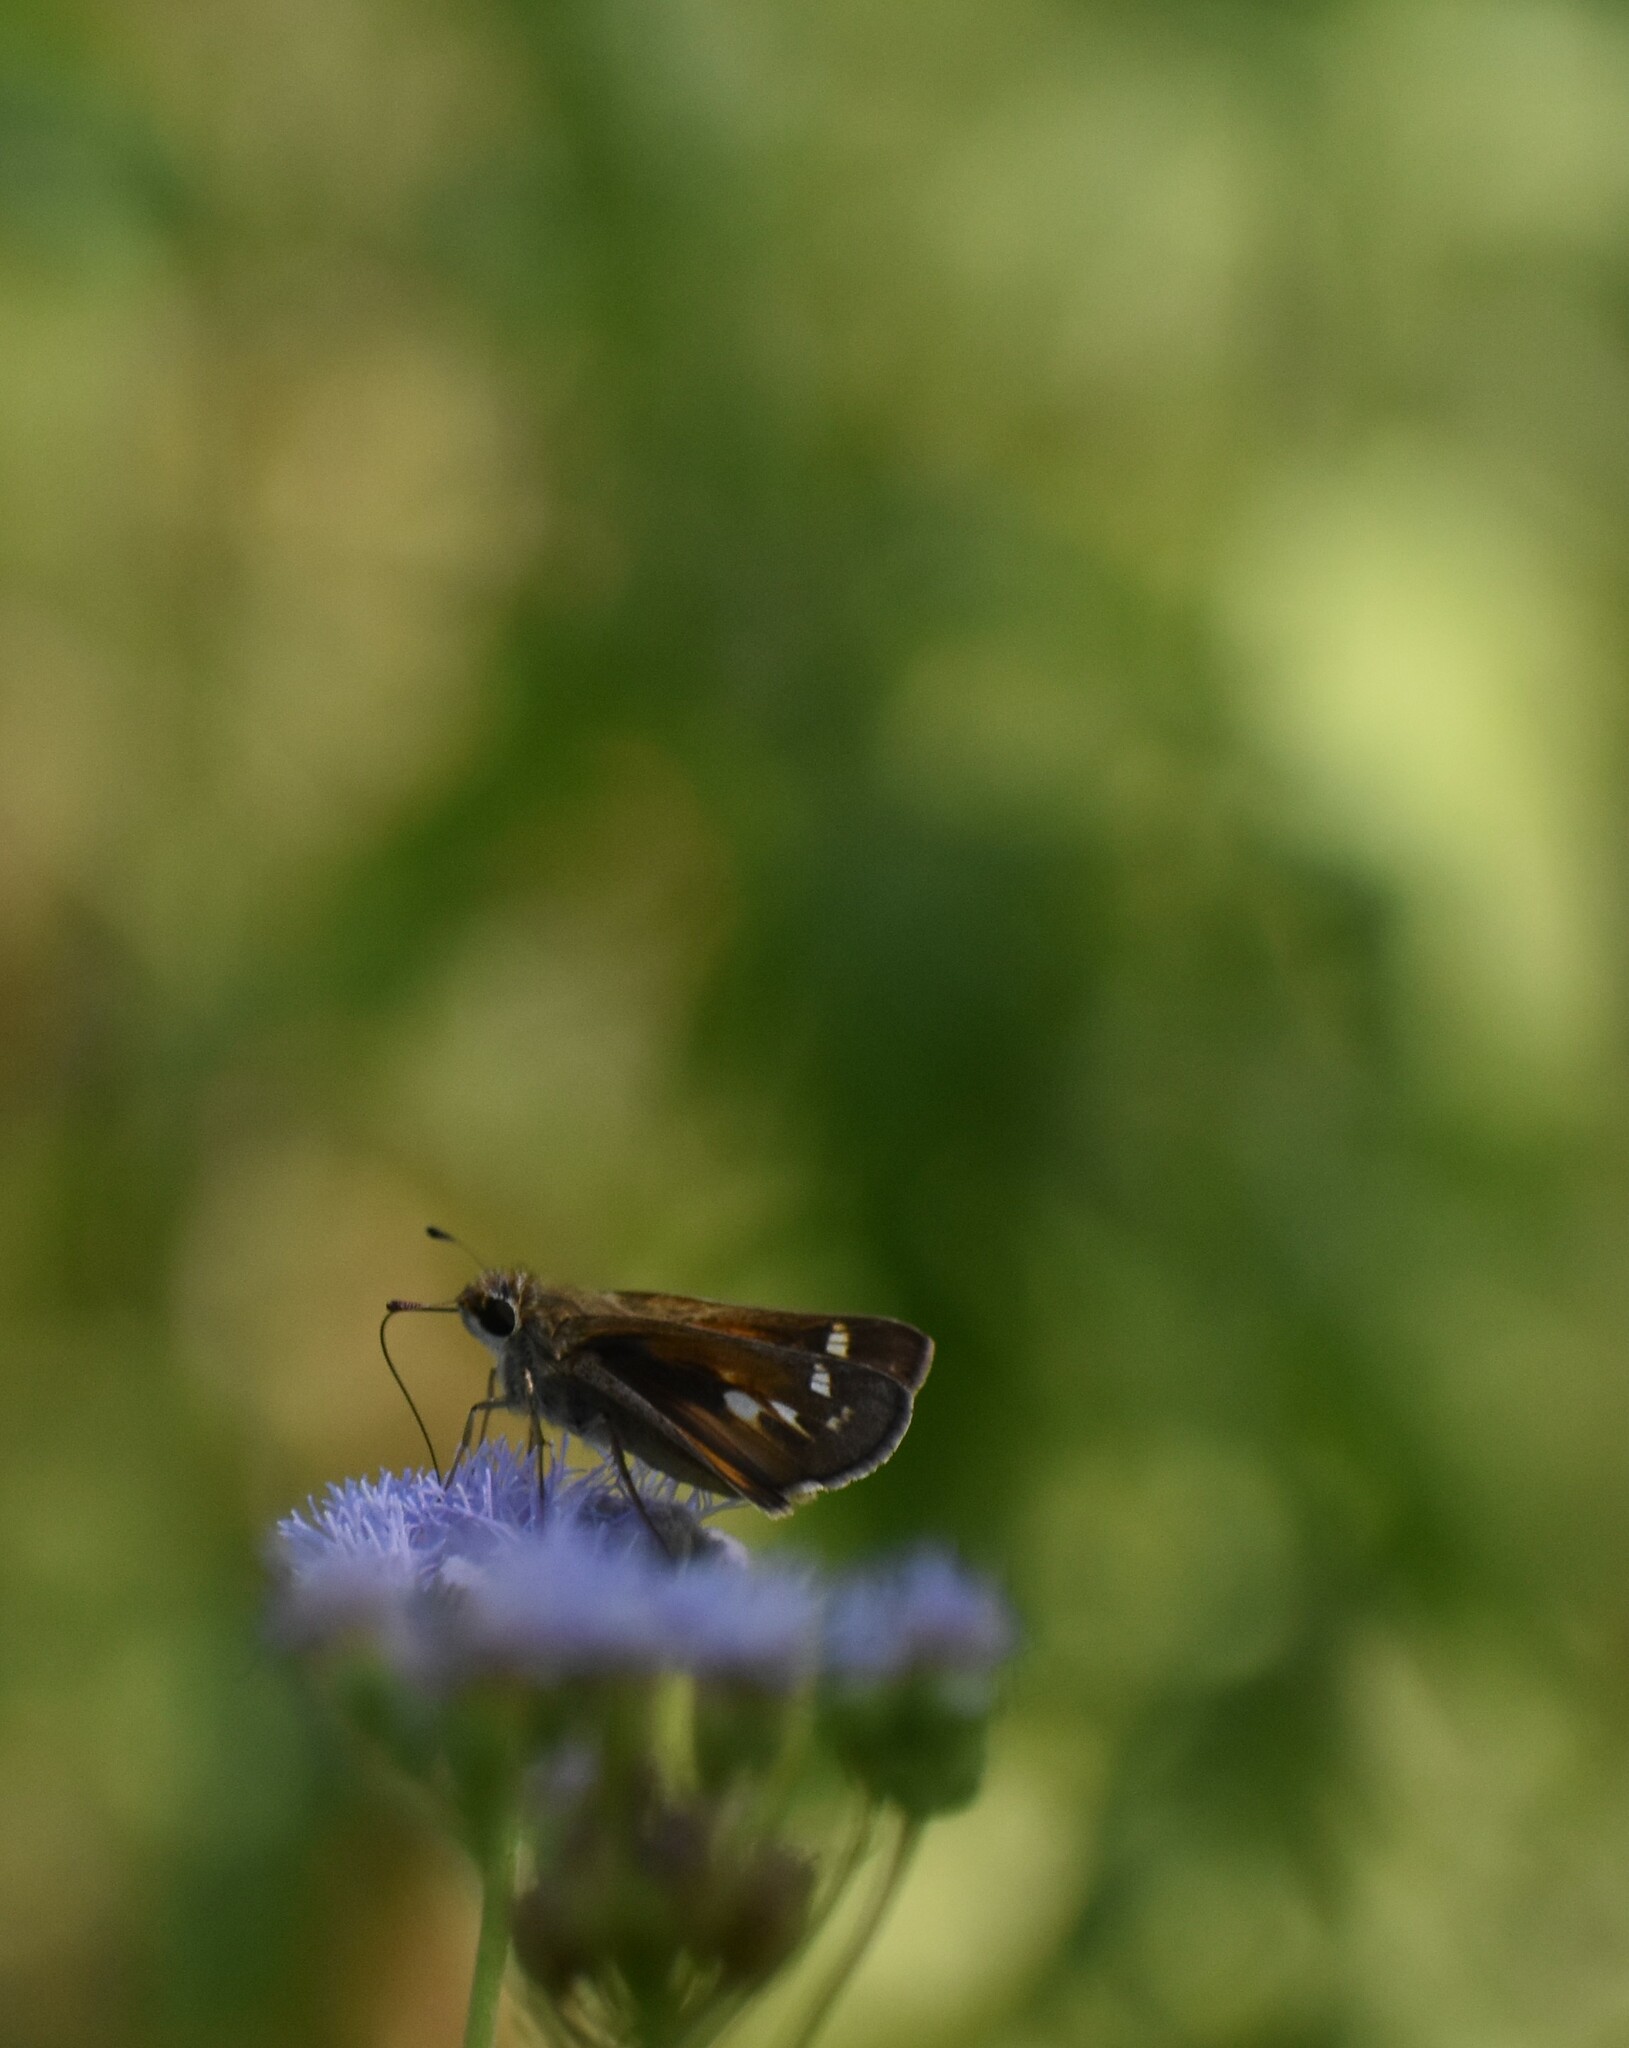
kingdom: Animalia
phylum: Arthropoda
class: Insecta
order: Lepidoptera
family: Hesperiidae
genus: Atalopedes
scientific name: Atalopedes
